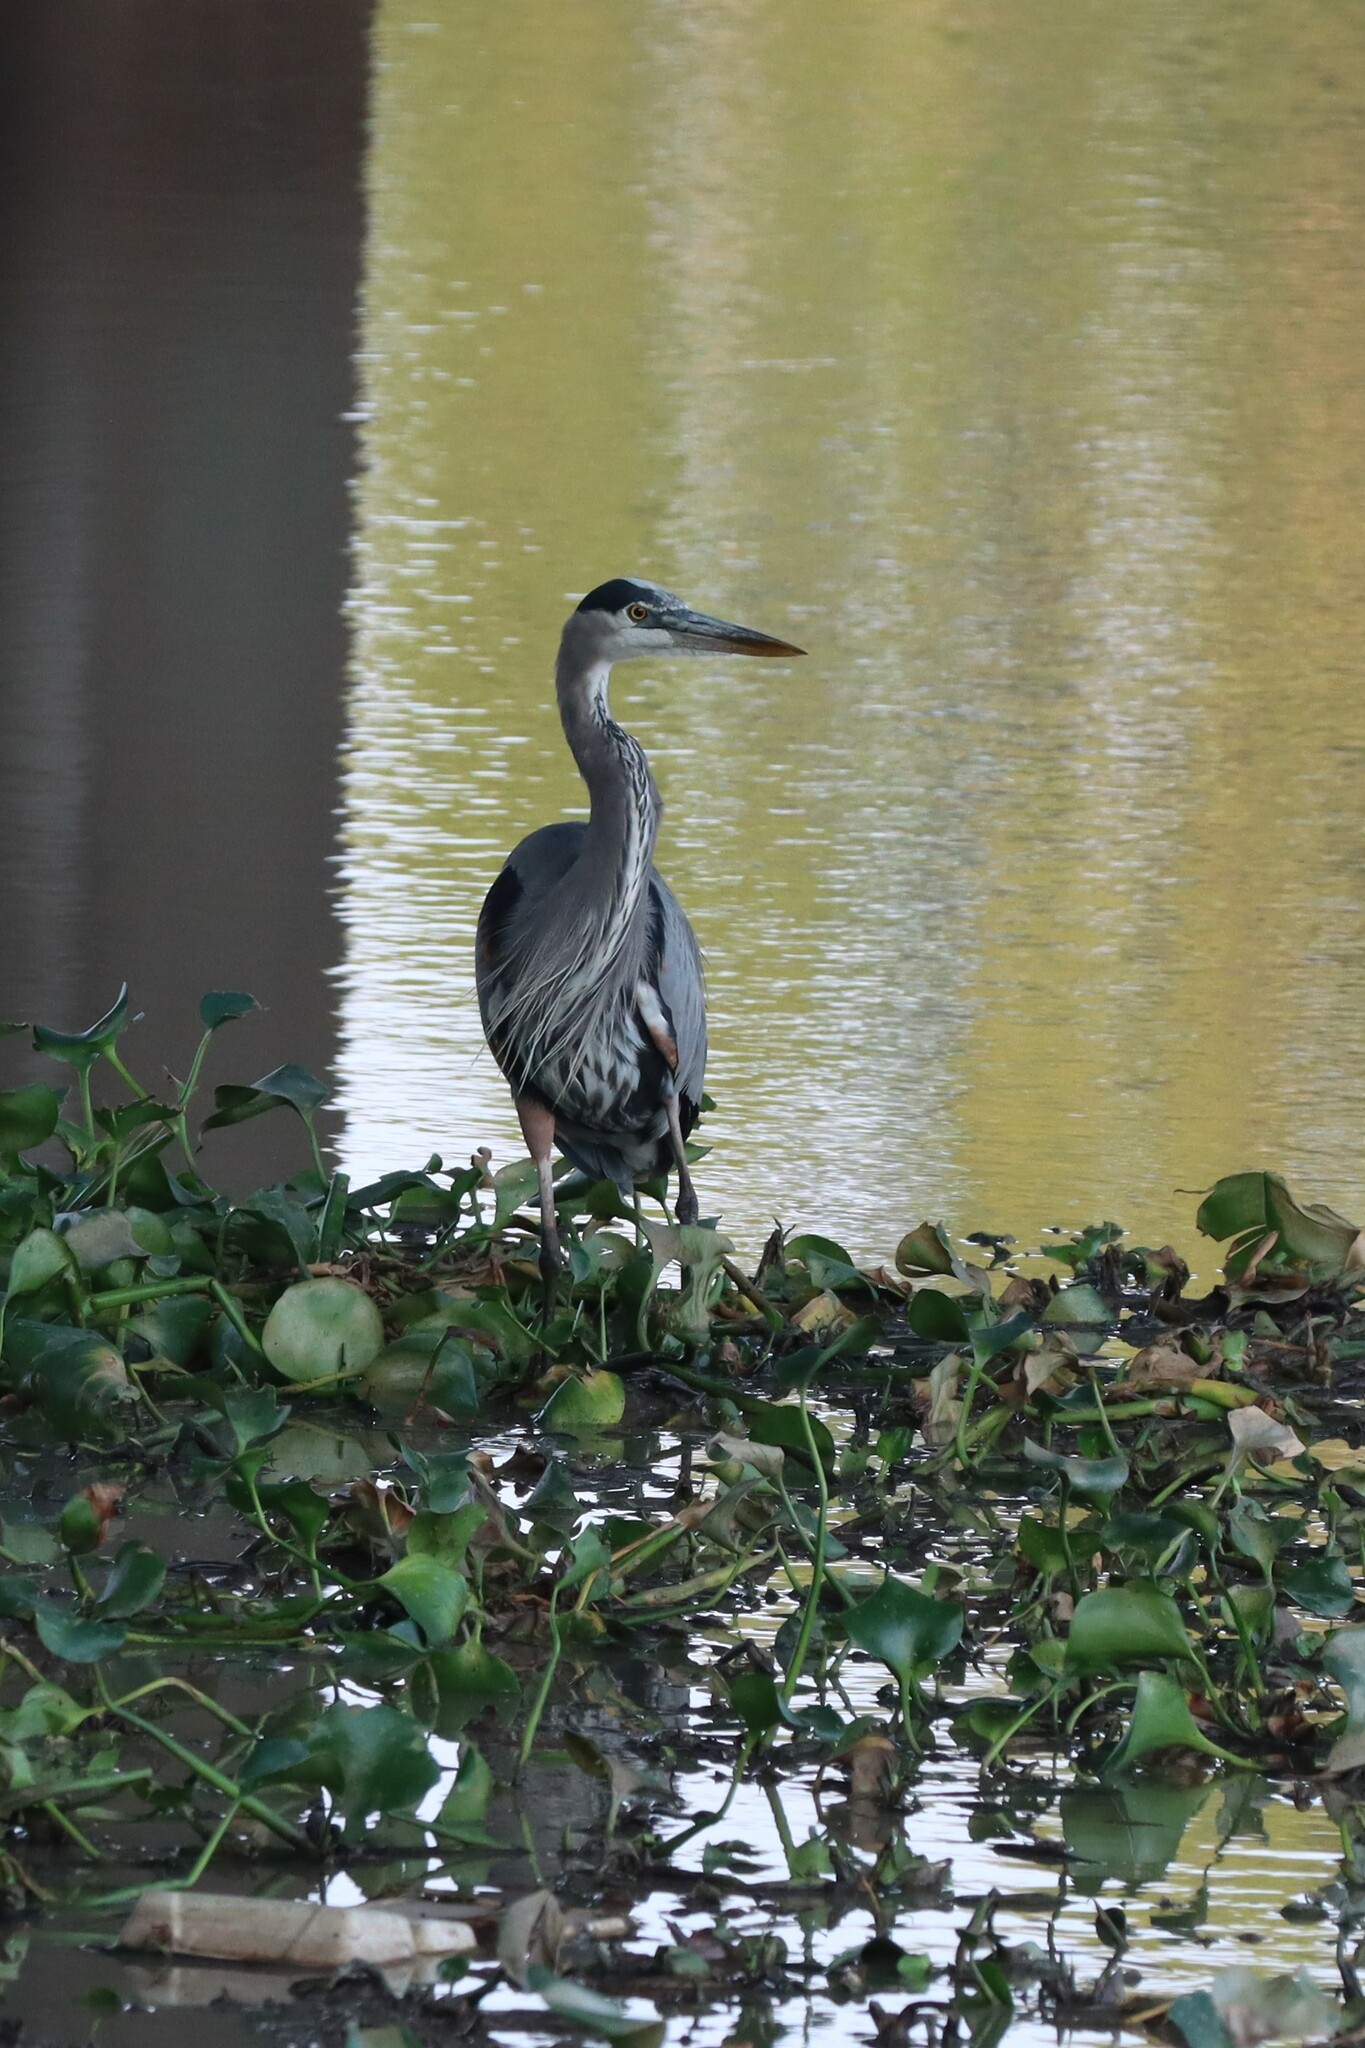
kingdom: Animalia
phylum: Chordata
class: Aves
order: Pelecaniformes
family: Ardeidae
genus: Ardea
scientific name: Ardea herodias
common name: Great blue heron
